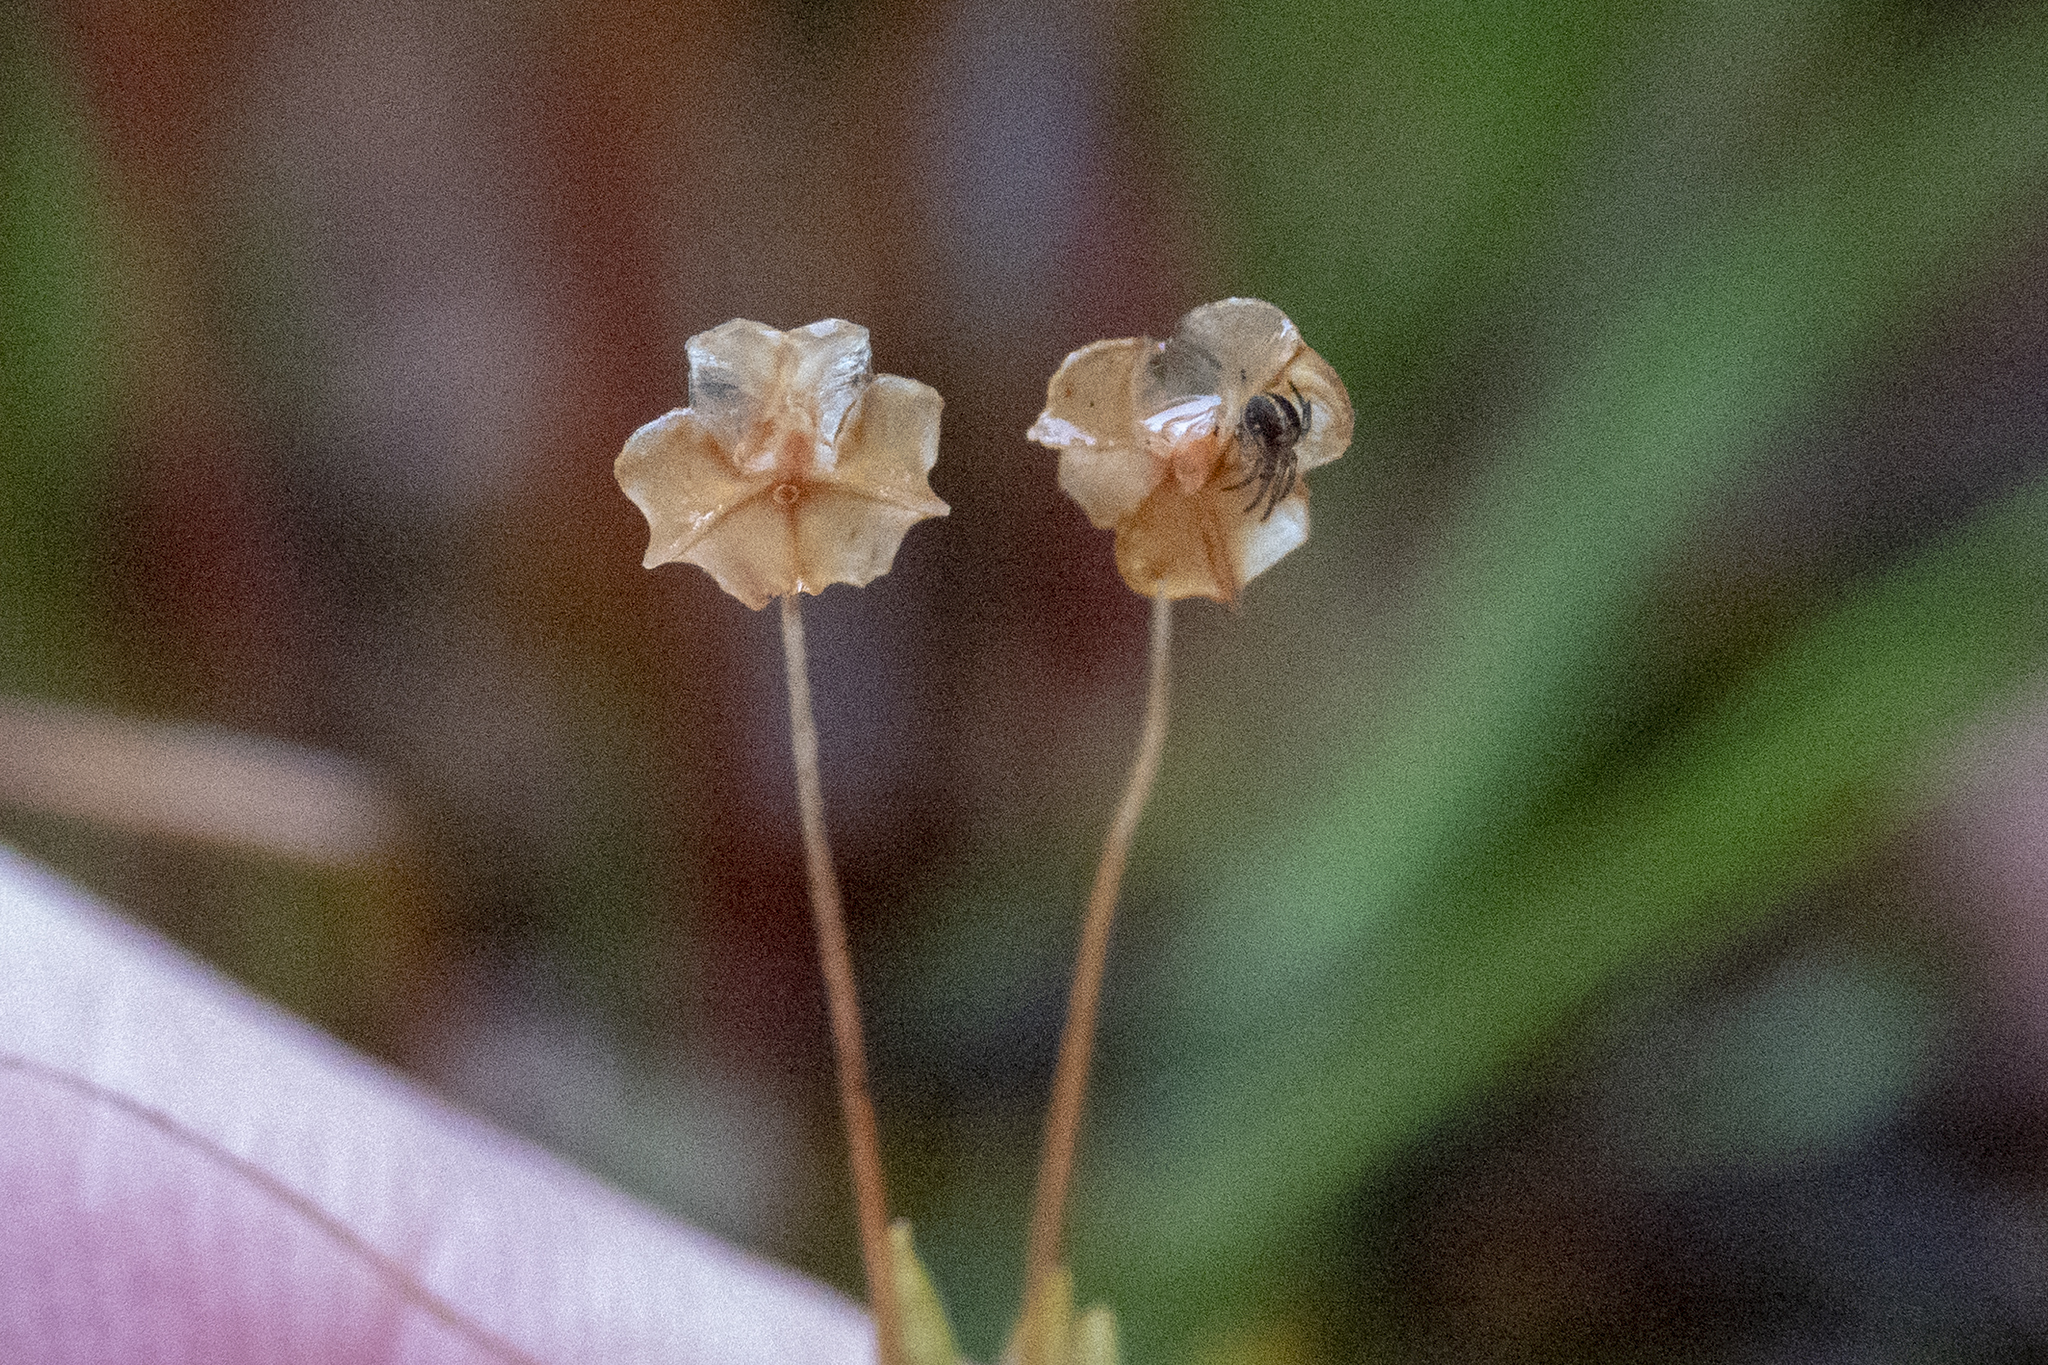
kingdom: Plantae
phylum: Tracheophyta
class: Liliopsida
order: Asparagales
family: Iridaceae
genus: Libertia
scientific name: Libertia micrantha
